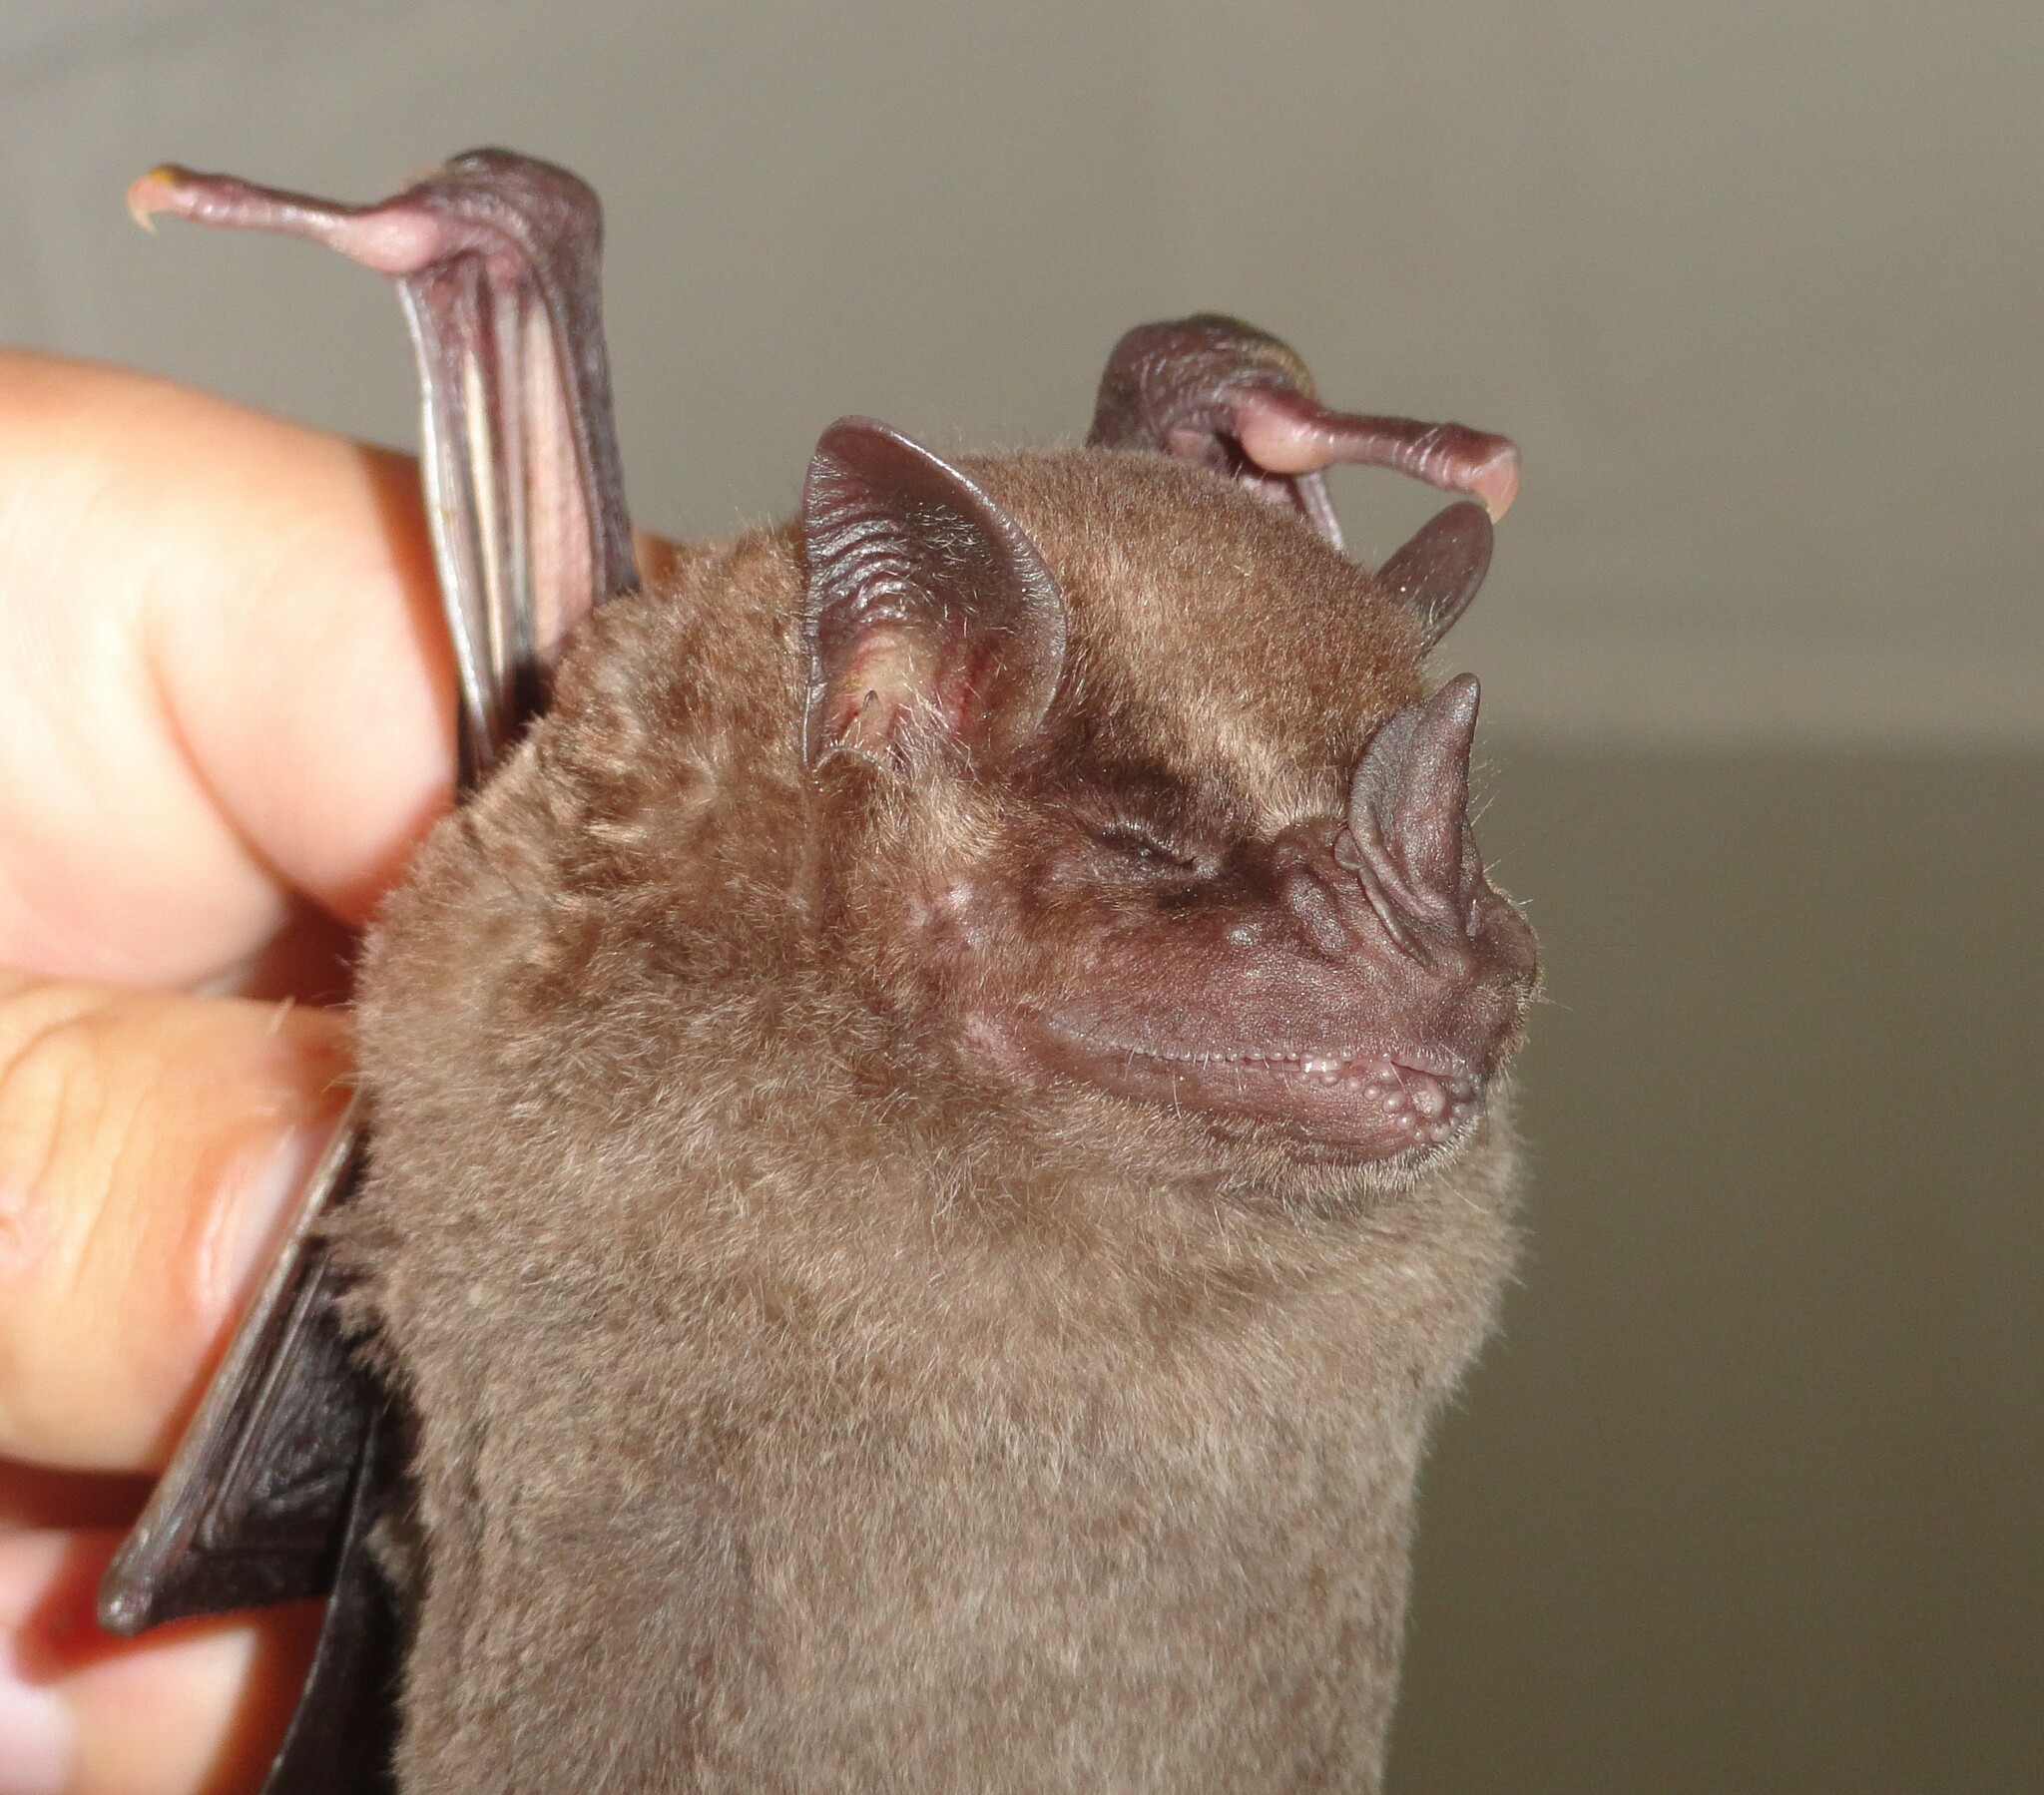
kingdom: Animalia
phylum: Chordata
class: Mammalia
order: Chiroptera
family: Phyllostomidae
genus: Artibeus
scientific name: Artibeus fimbriatus
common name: Fringed fruit-eating bat
